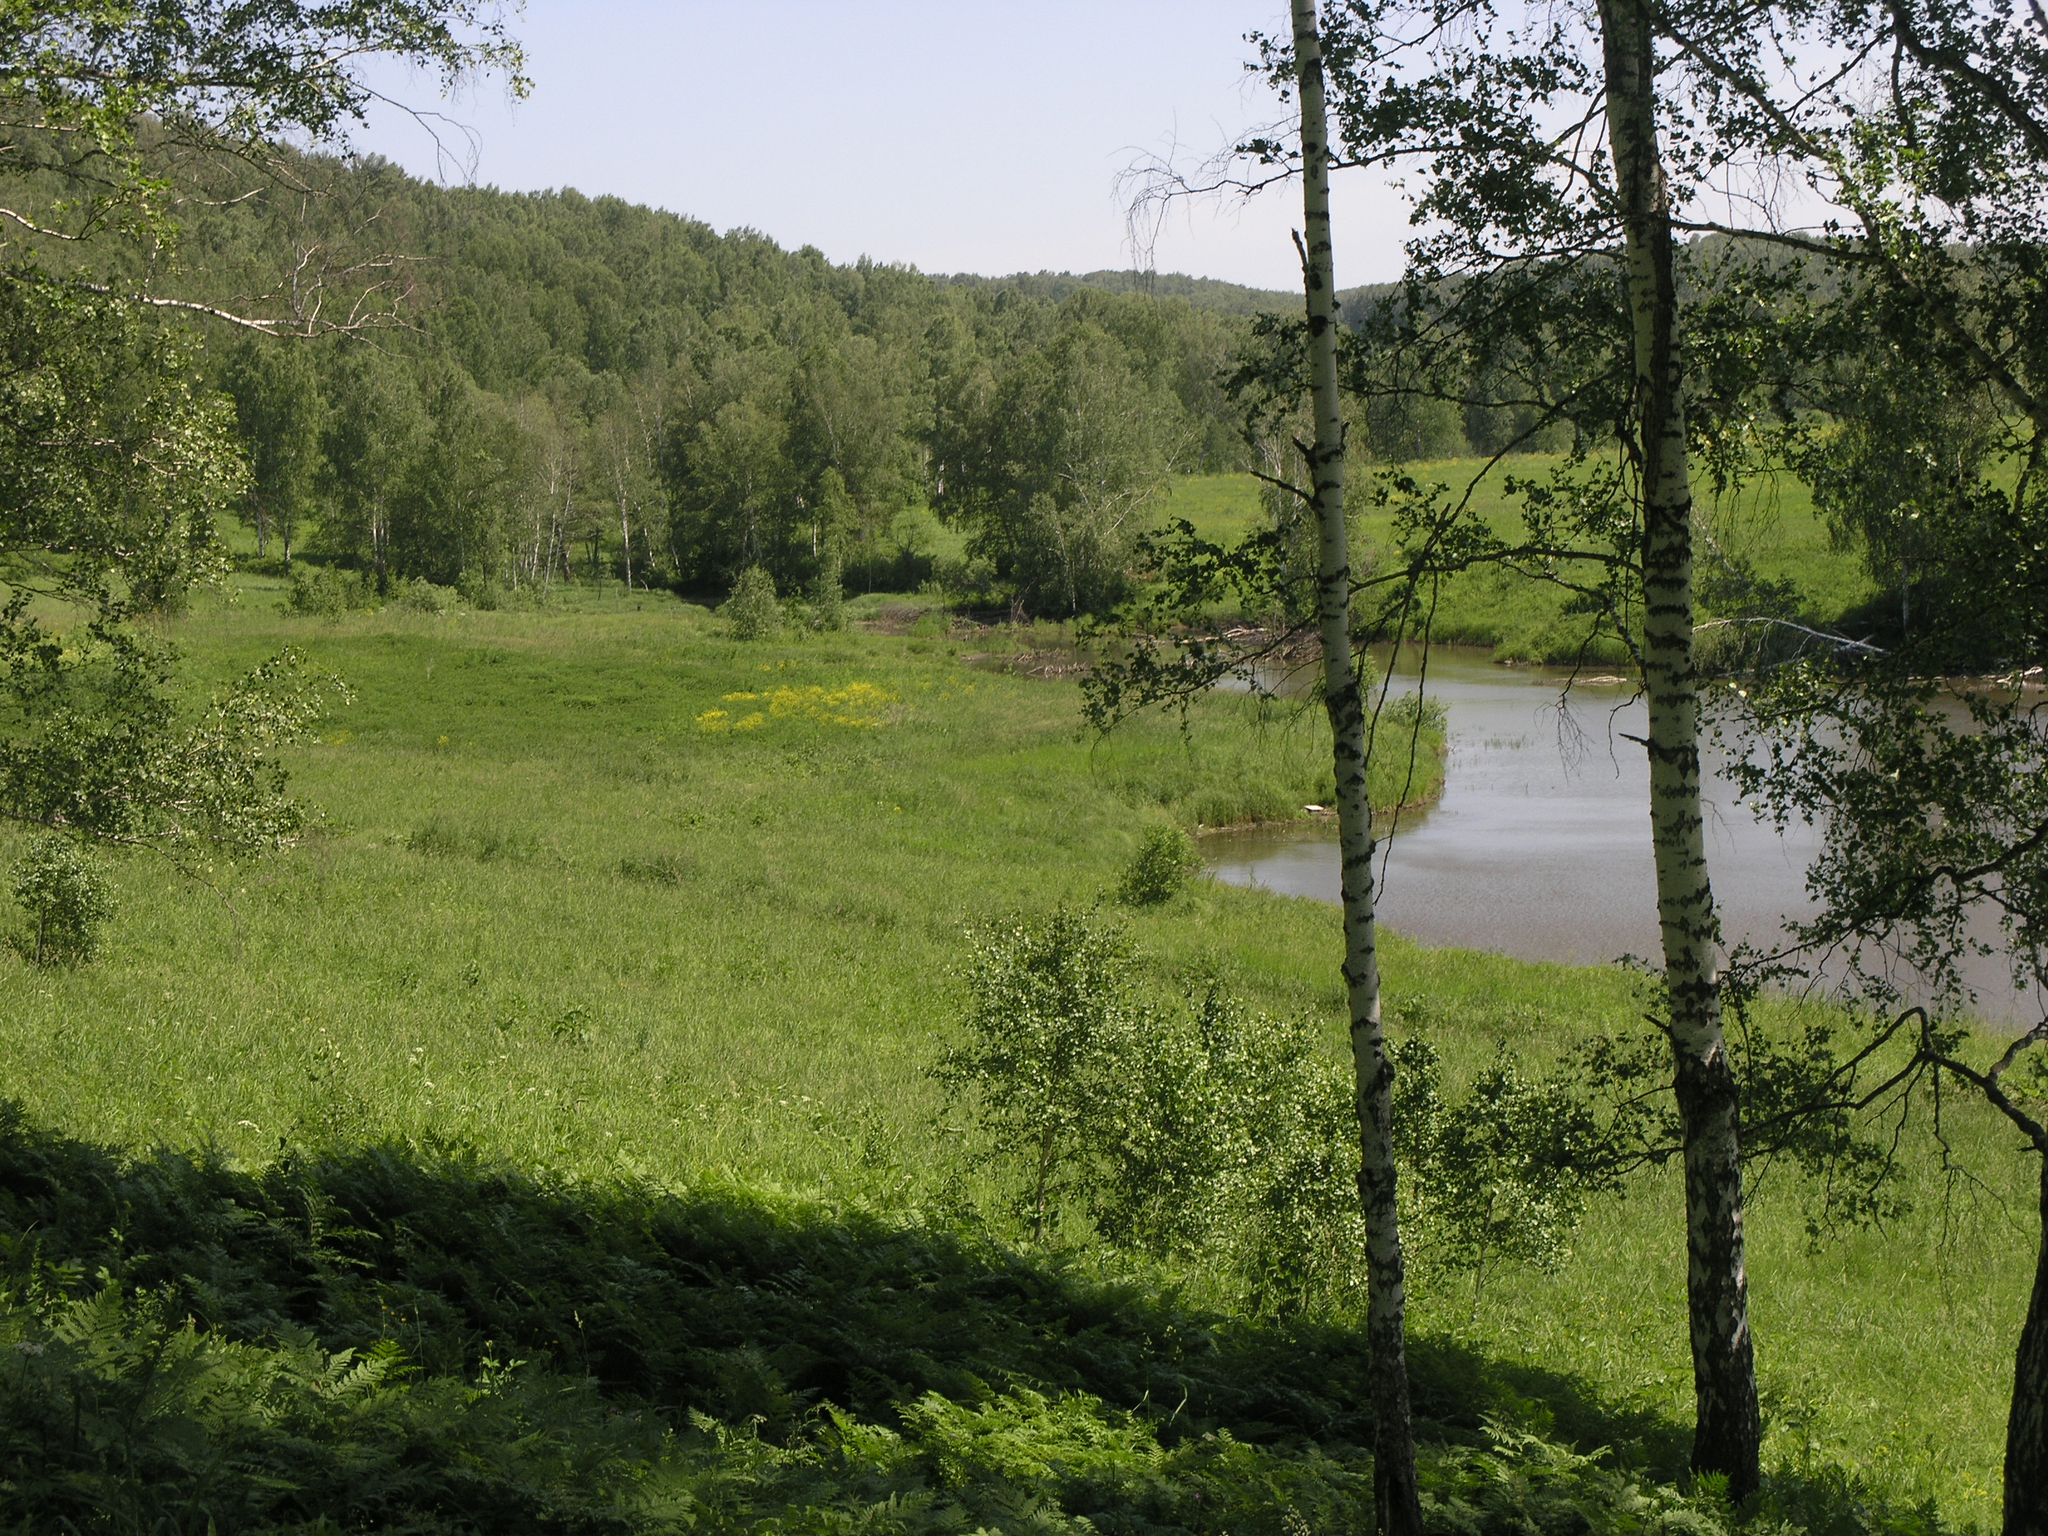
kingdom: Plantae
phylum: Tracheophyta
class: Magnoliopsida
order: Fagales
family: Betulaceae
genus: Betula
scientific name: Betula pendula
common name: Silver birch
